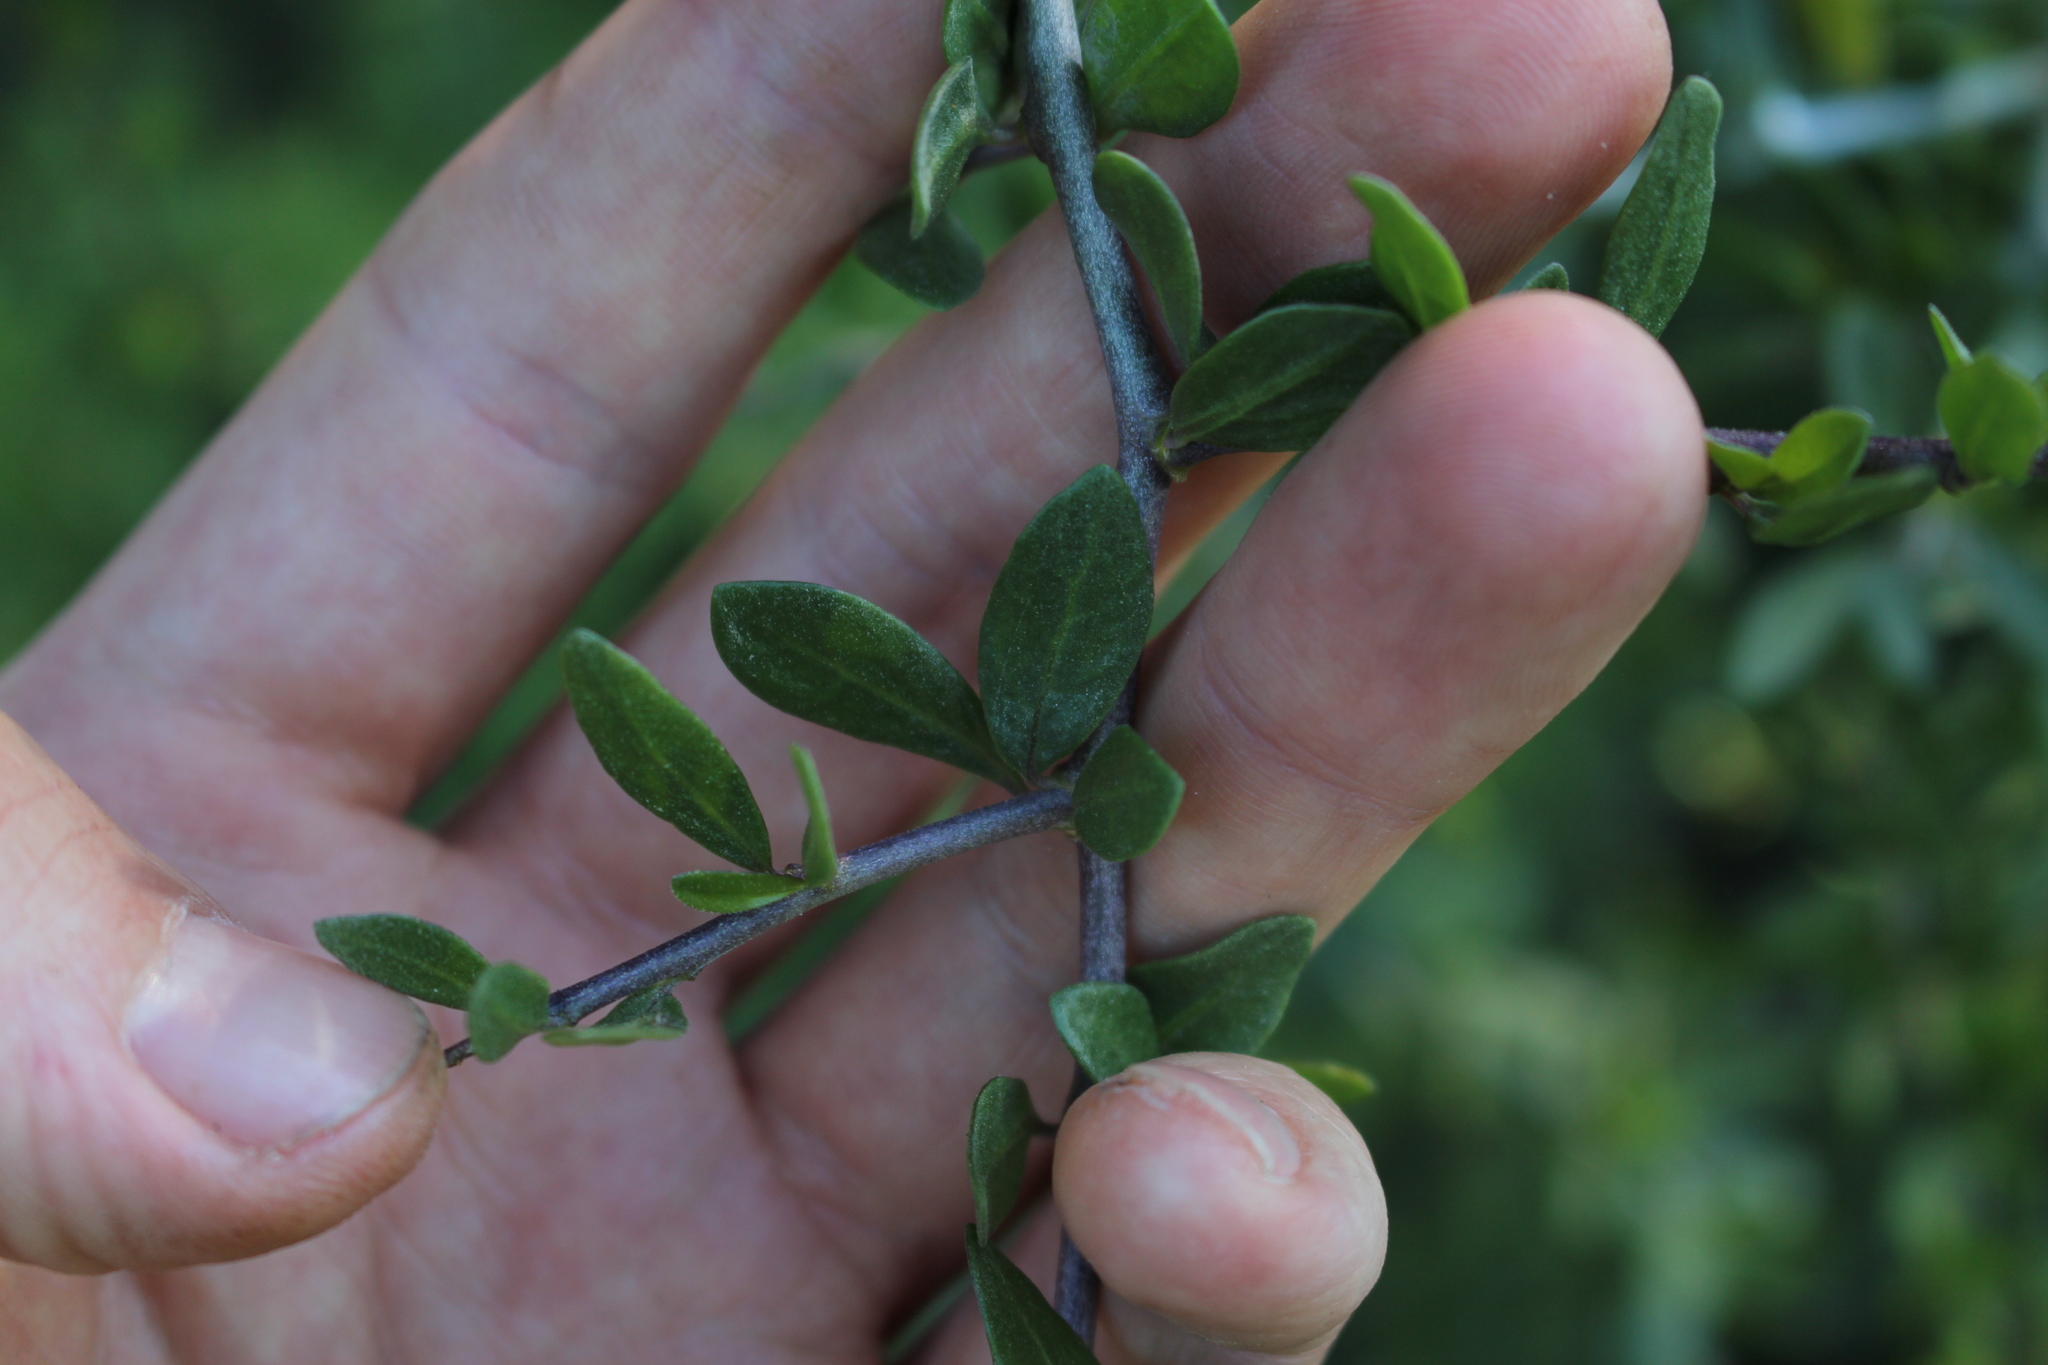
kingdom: Plantae
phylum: Tracheophyta
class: Magnoliopsida
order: Solanales
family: Solanaceae
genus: Lycium
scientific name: Lycium ferocissimum
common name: African boxthorn
